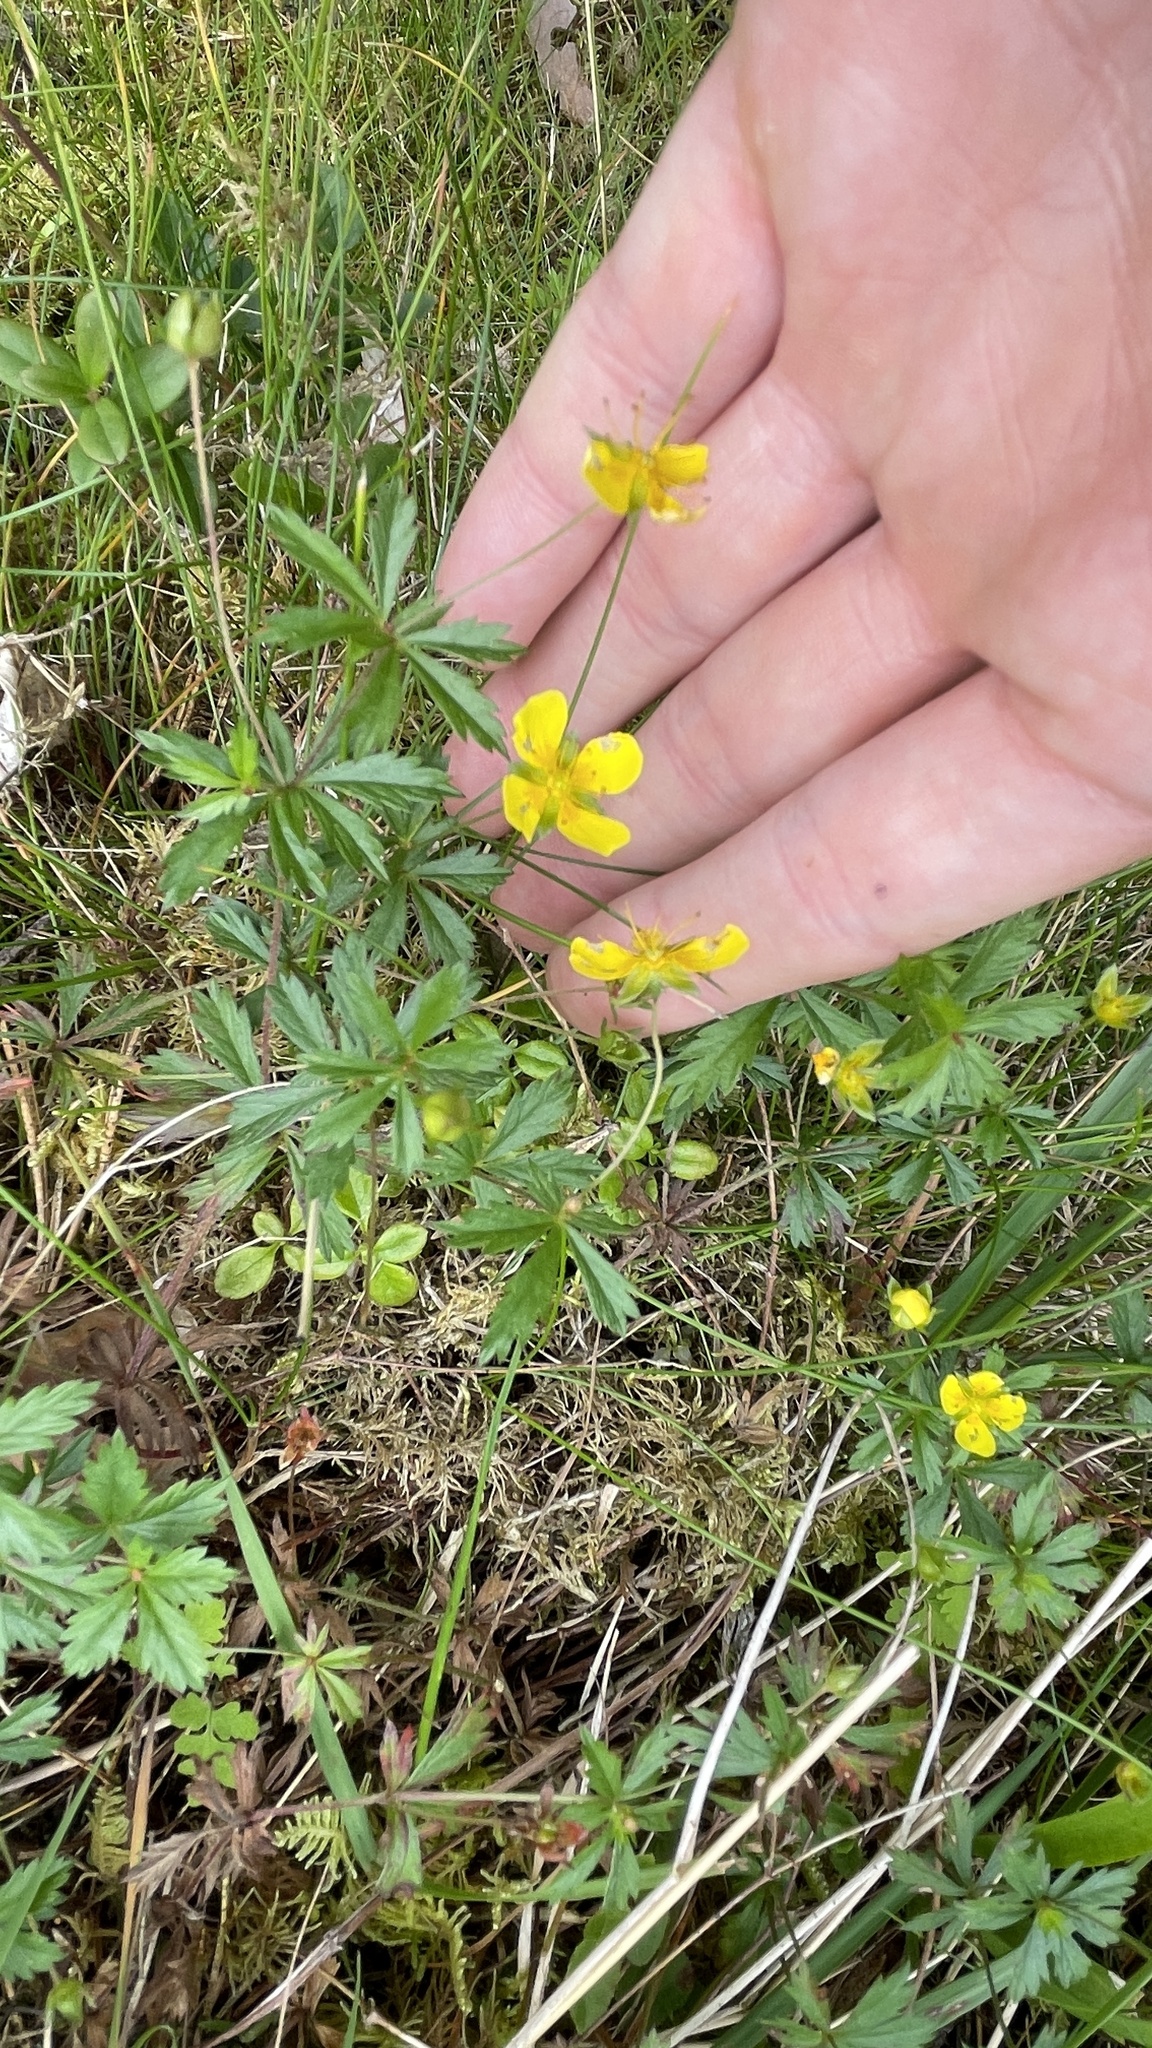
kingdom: Plantae
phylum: Tracheophyta
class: Magnoliopsida
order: Rosales
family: Rosaceae
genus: Potentilla
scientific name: Potentilla erecta
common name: Tormentil
